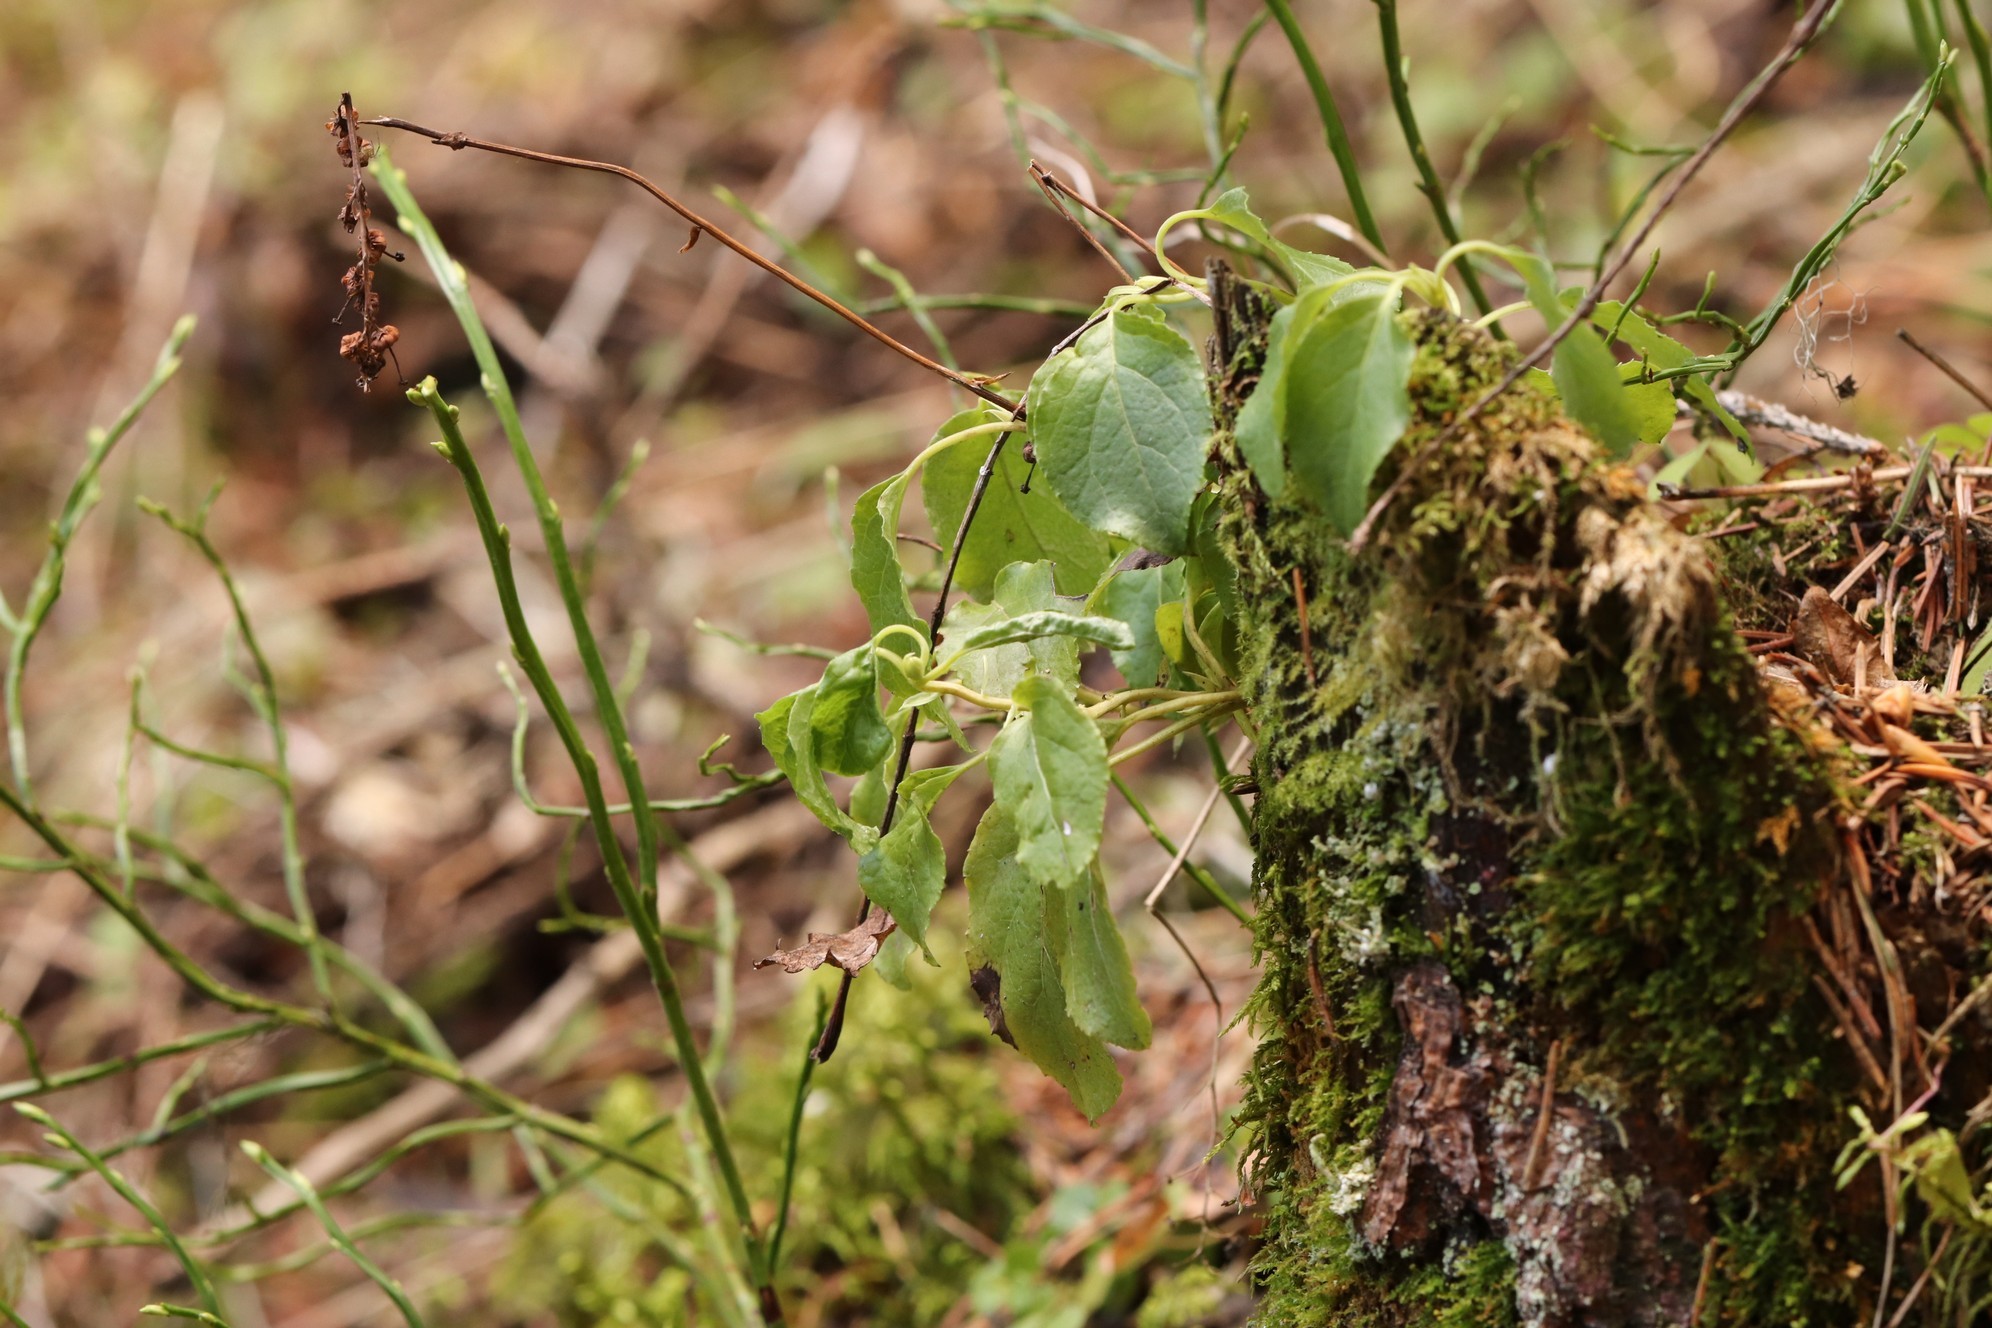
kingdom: Plantae
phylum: Tracheophyta
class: Magnoliopsida
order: Ericales
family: Ericaceae
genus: Orthilia
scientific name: Orthilia secunda
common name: One-sided orthilia
